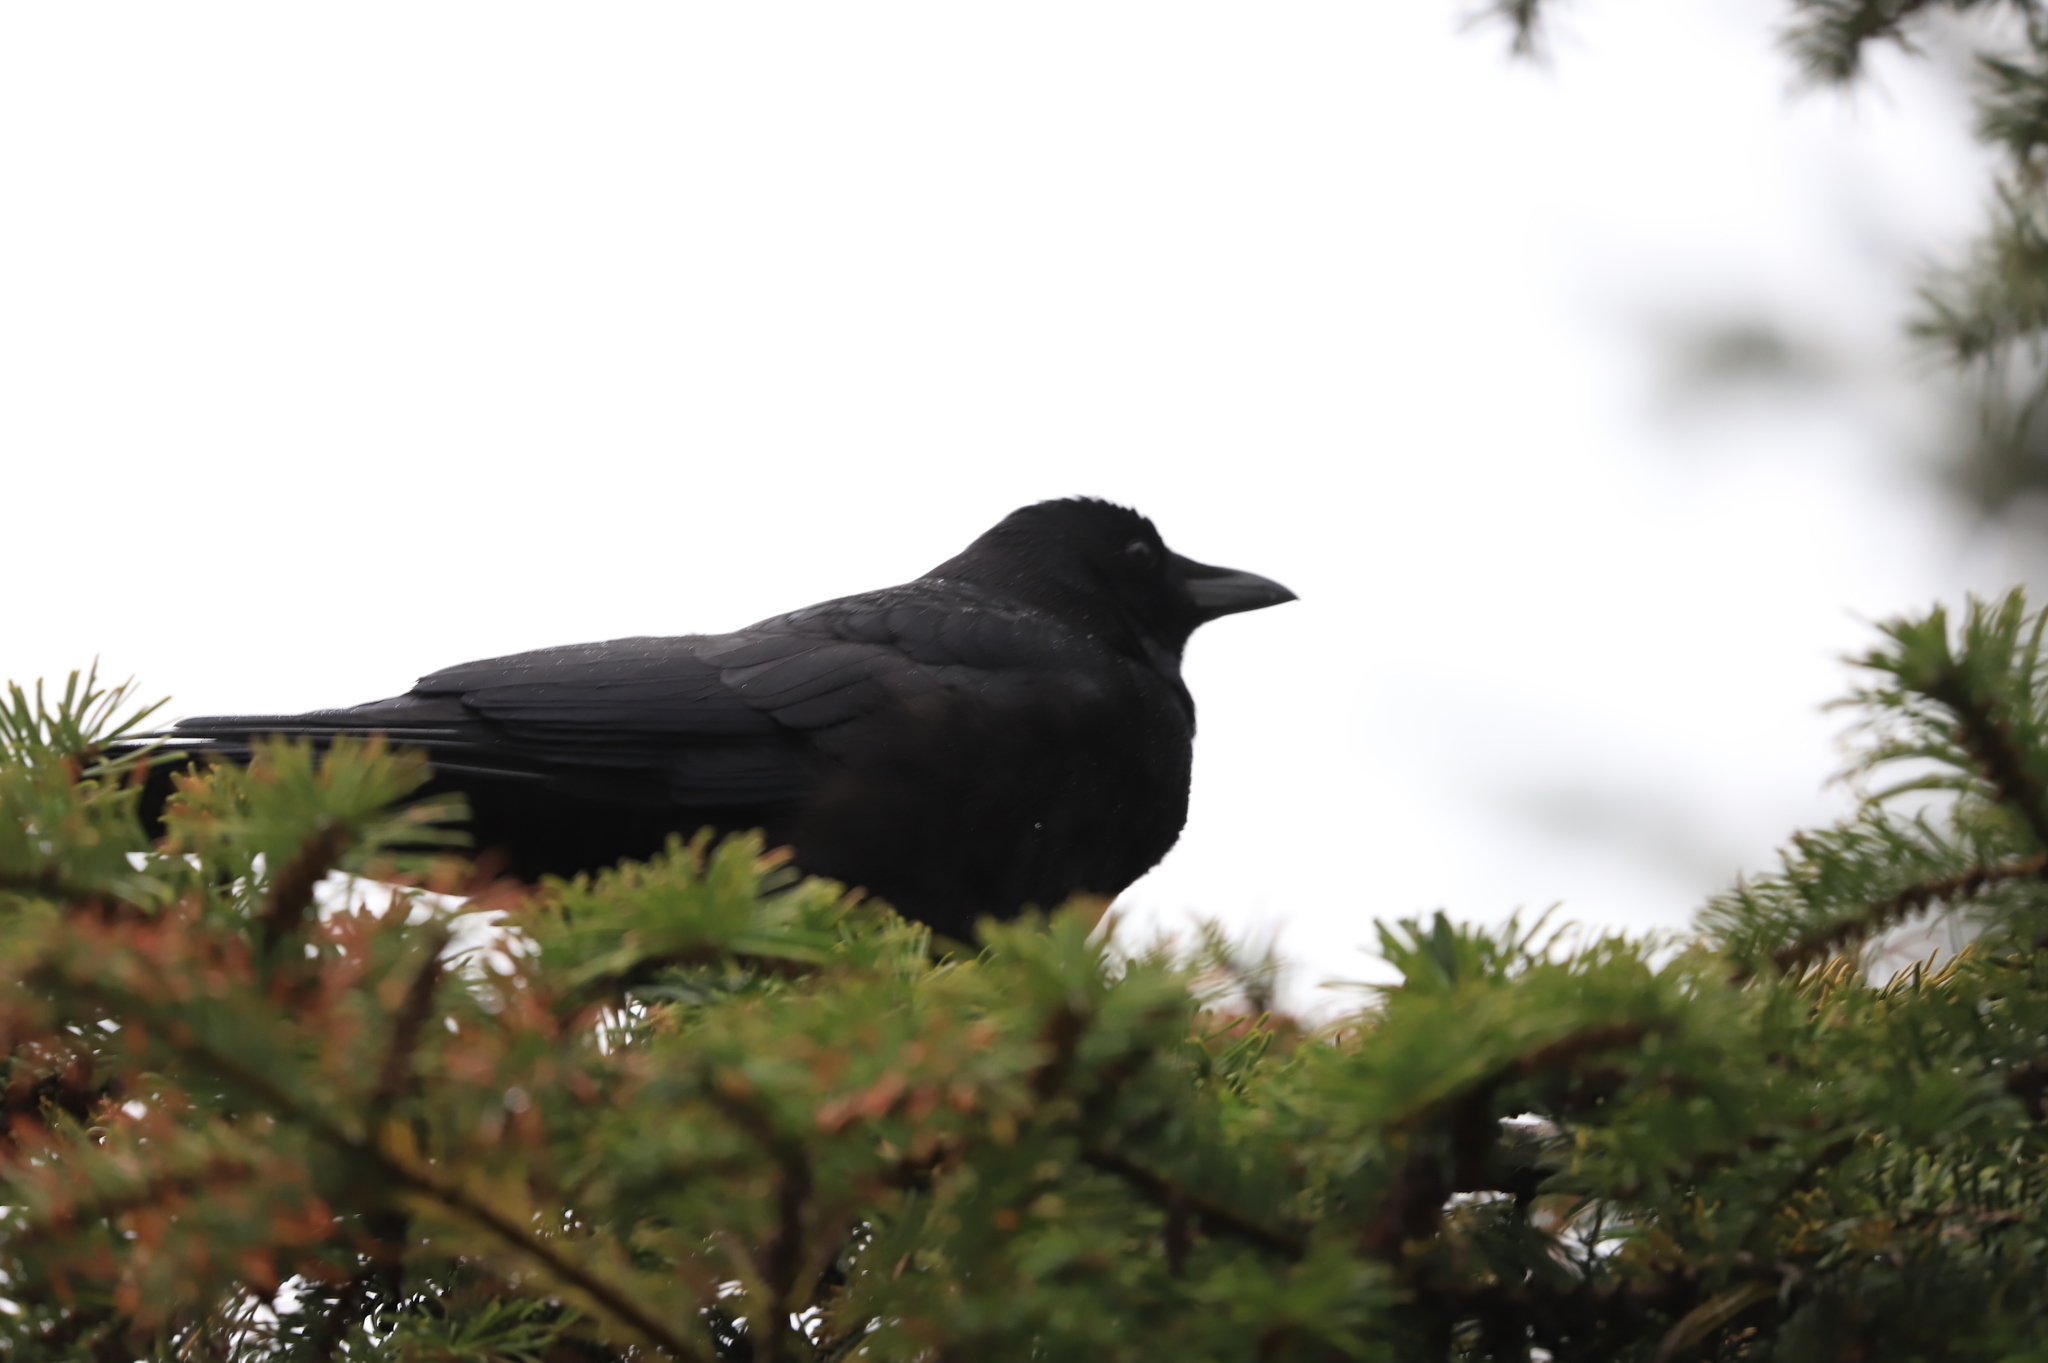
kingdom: Animalia
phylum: Chordata
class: Aves
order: Passeriformes
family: Corvidae
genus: Corvus
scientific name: Corvus brachyrhynchos
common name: American crow
